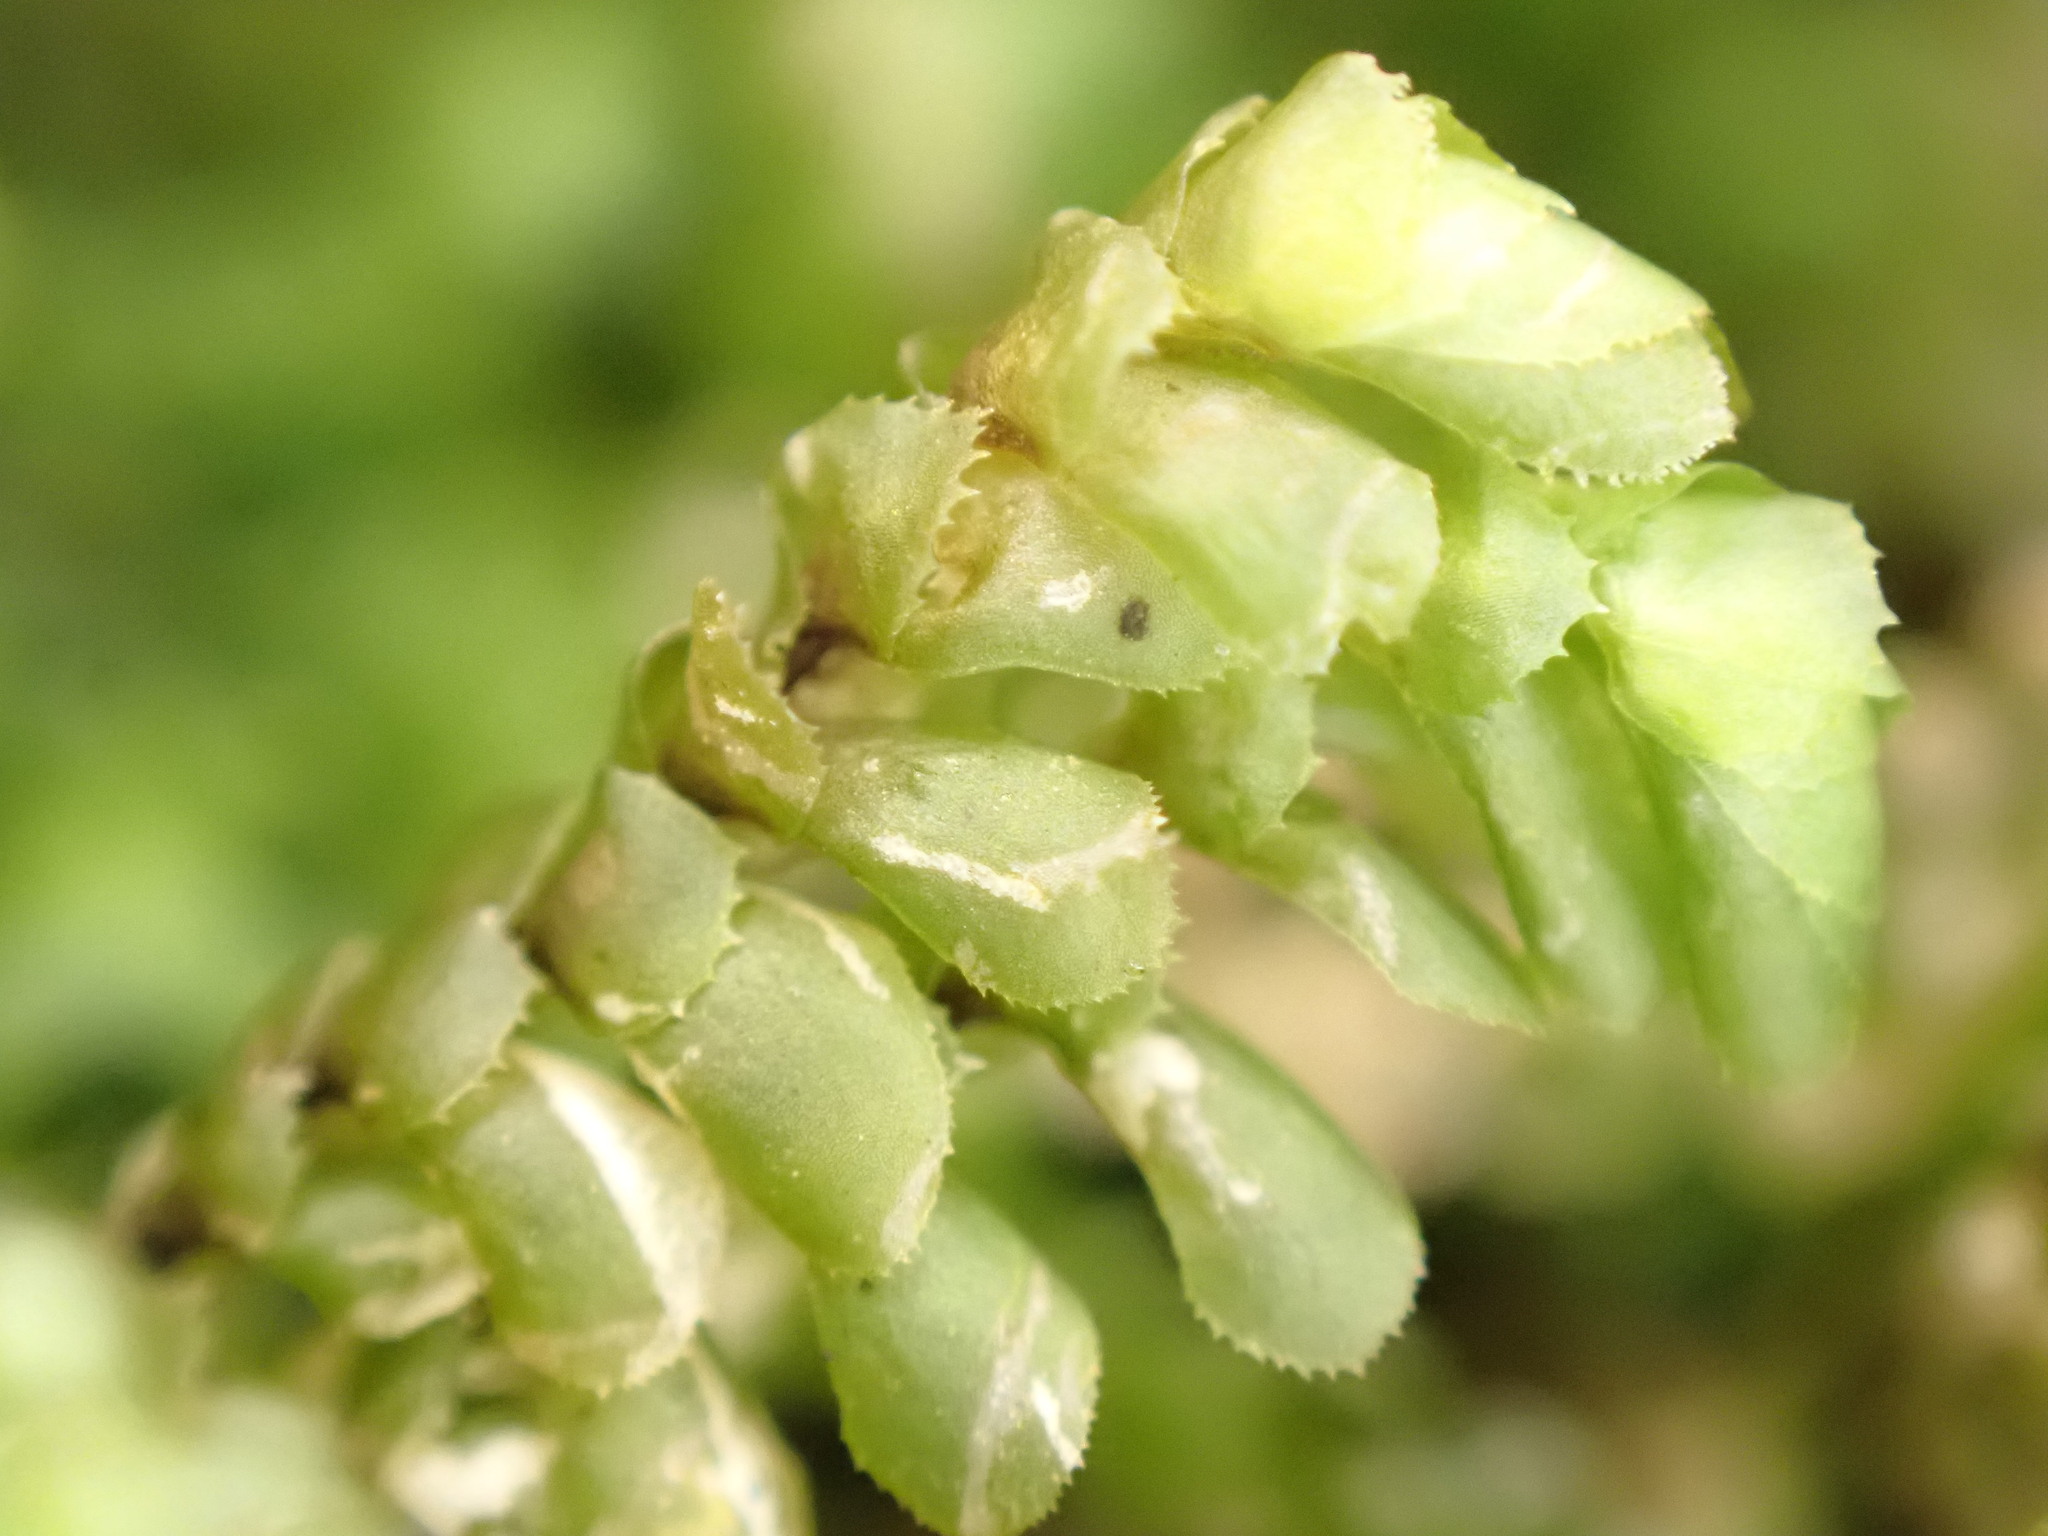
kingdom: Plantae
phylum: Marchantiophyta
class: Jungermanniopsida
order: Jungermanniales
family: Scapaniaceae
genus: Scapania
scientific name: Scapania bolanderi
